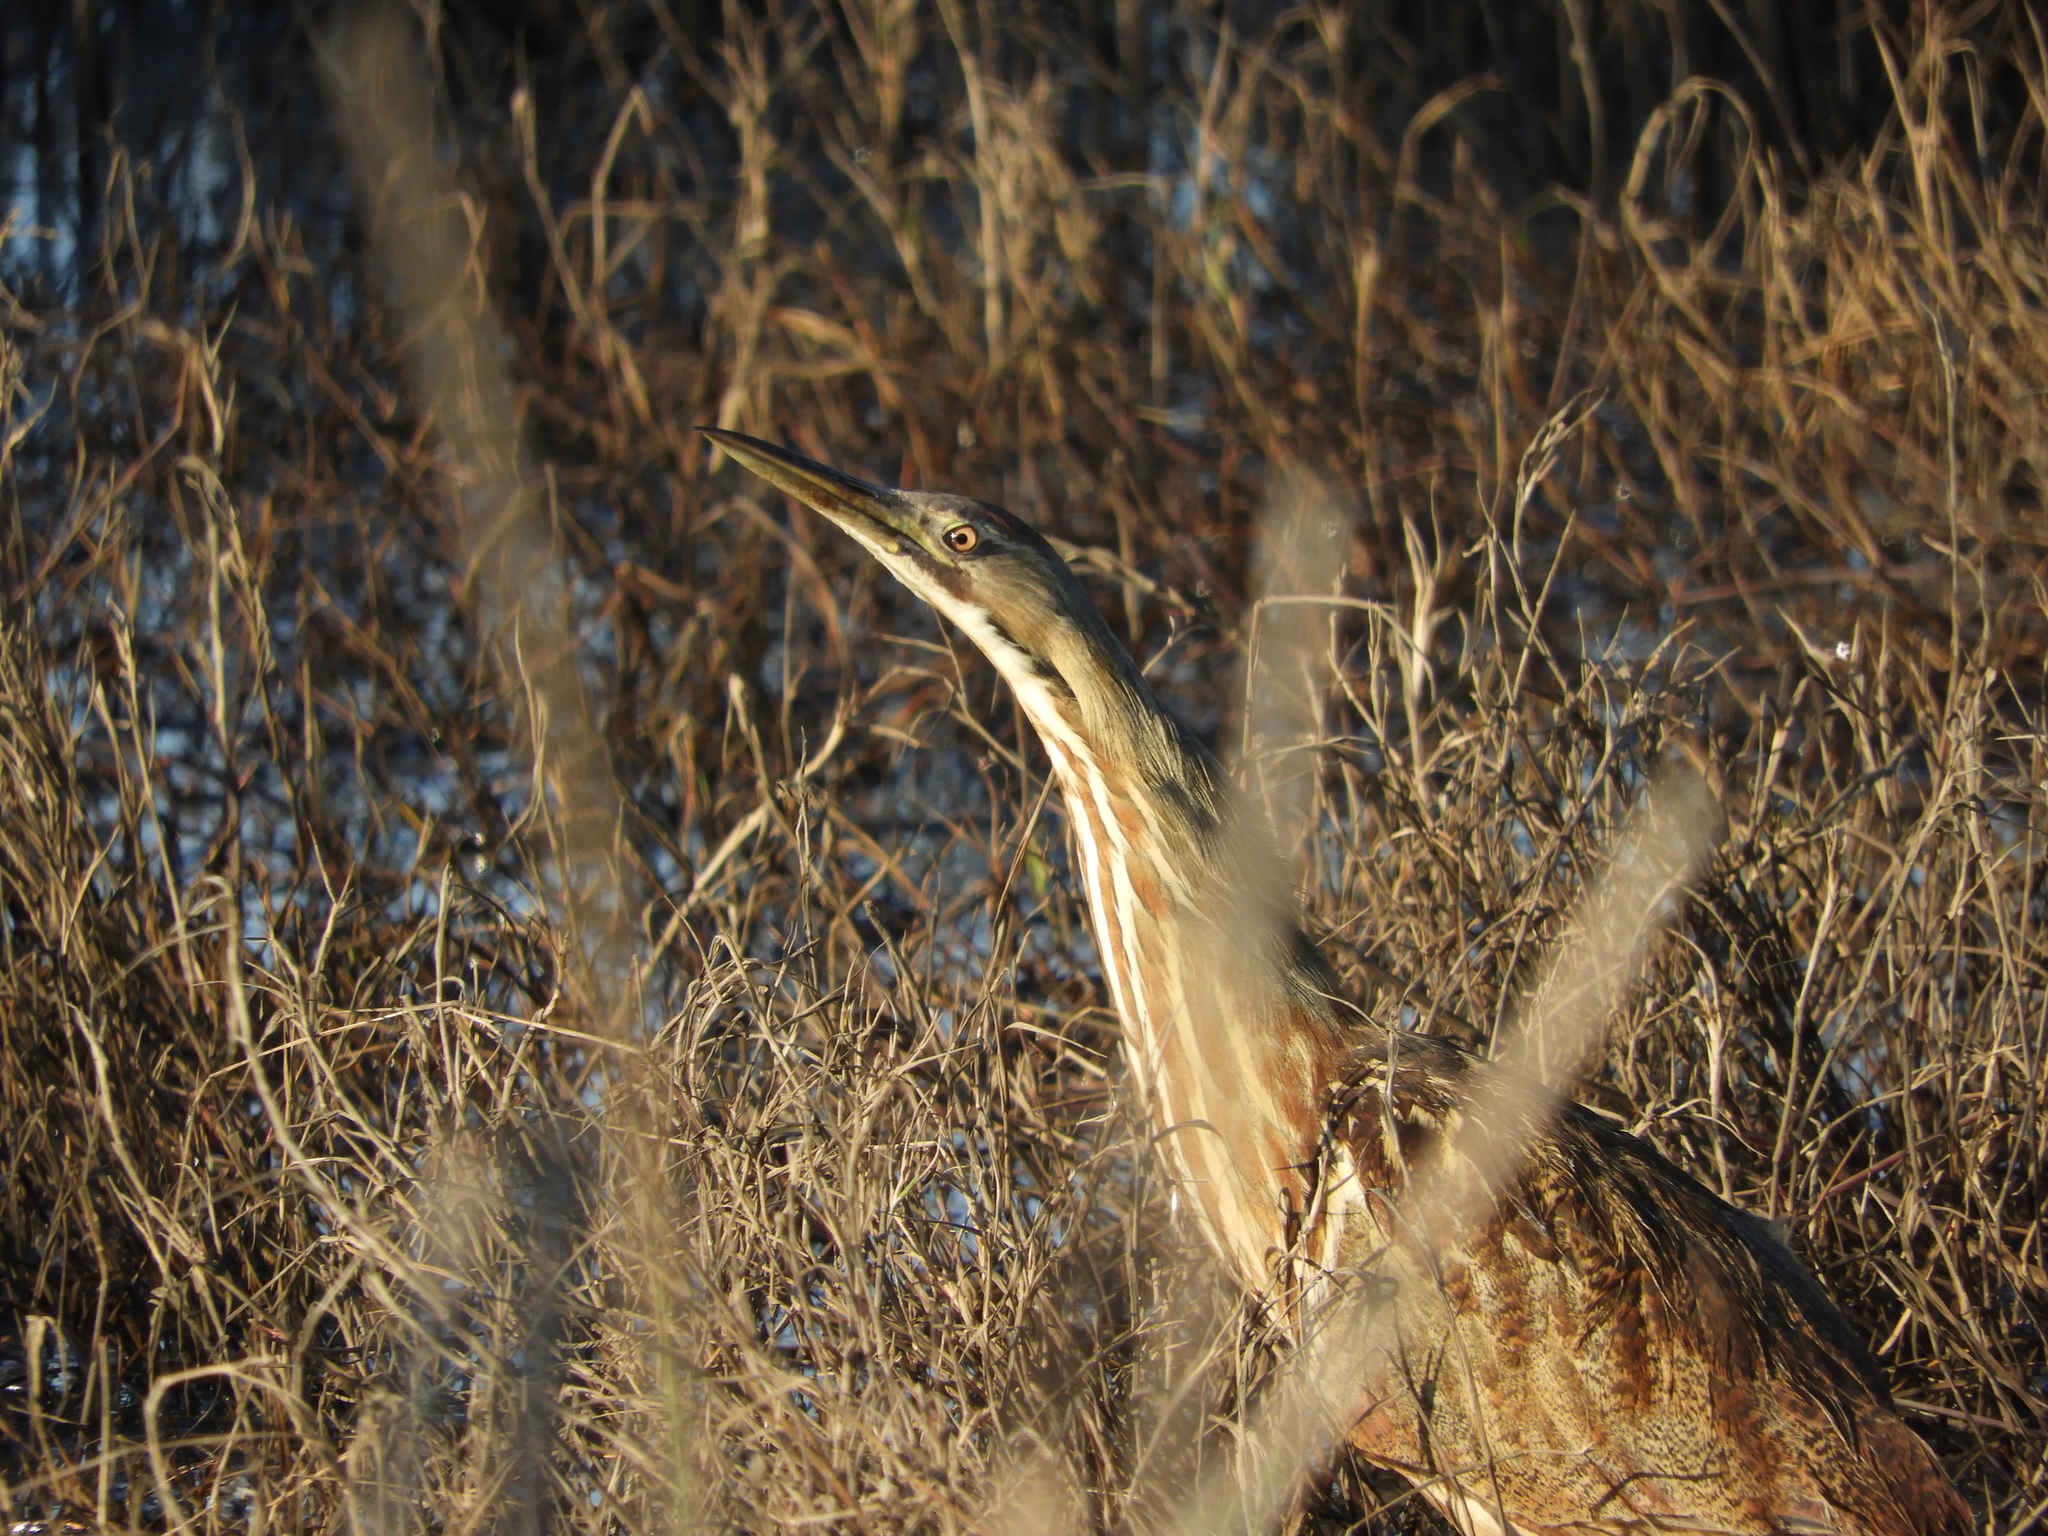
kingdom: Animalia
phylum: Chordata
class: Aves
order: Pelecaniformes
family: Ardeidae
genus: Botaurus
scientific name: Botaurus lentiginosus
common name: American bittern
